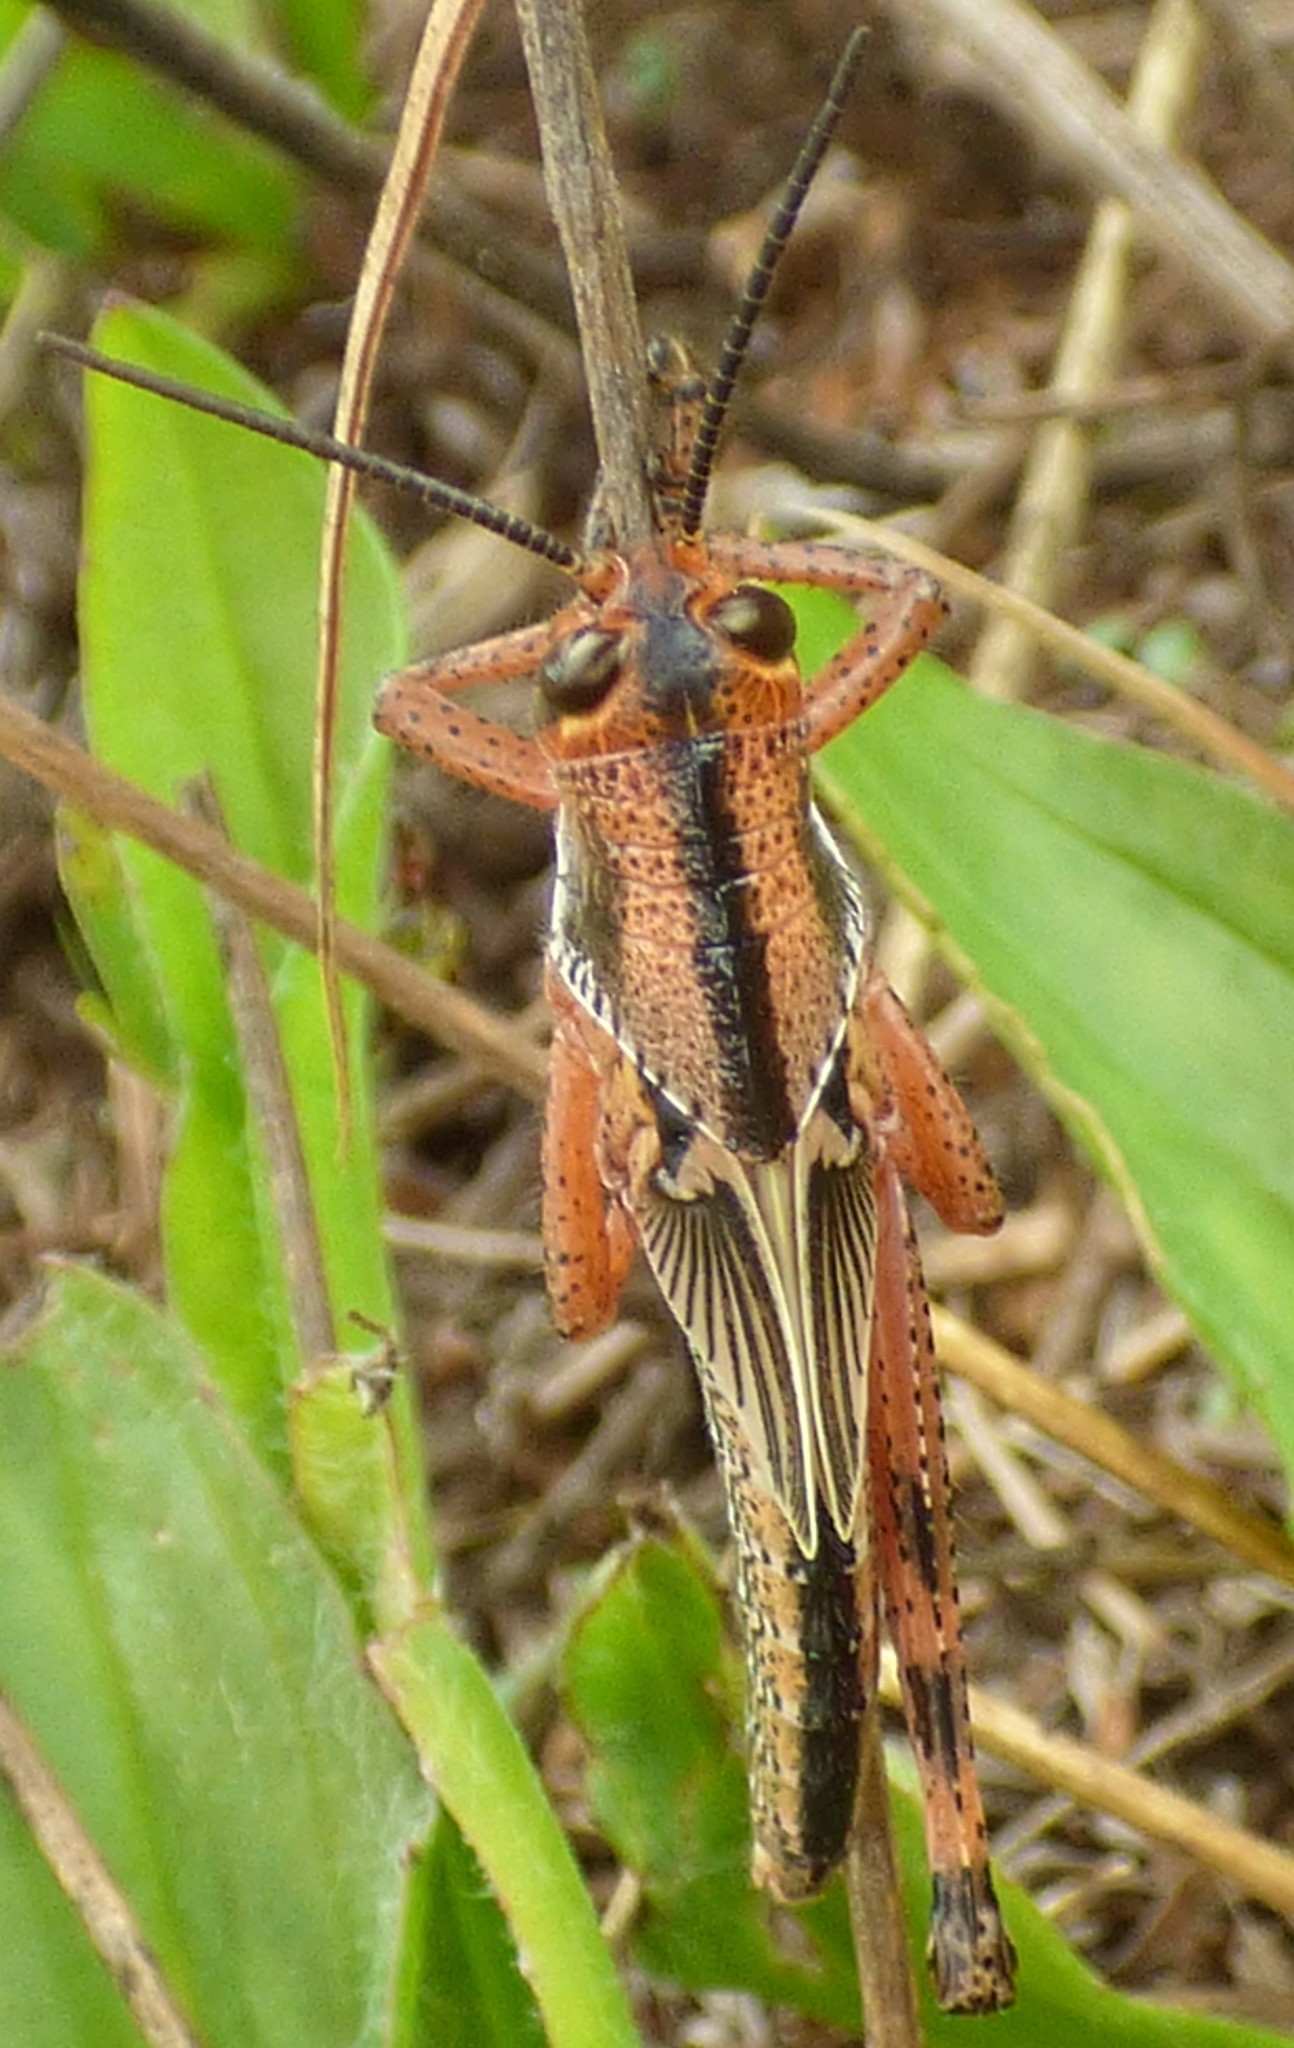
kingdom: Animalia
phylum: Arthropoda
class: Insecta
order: Orthoptera
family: Acrididae
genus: Schistocerca
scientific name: Schistocerca americana
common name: American bird locust
